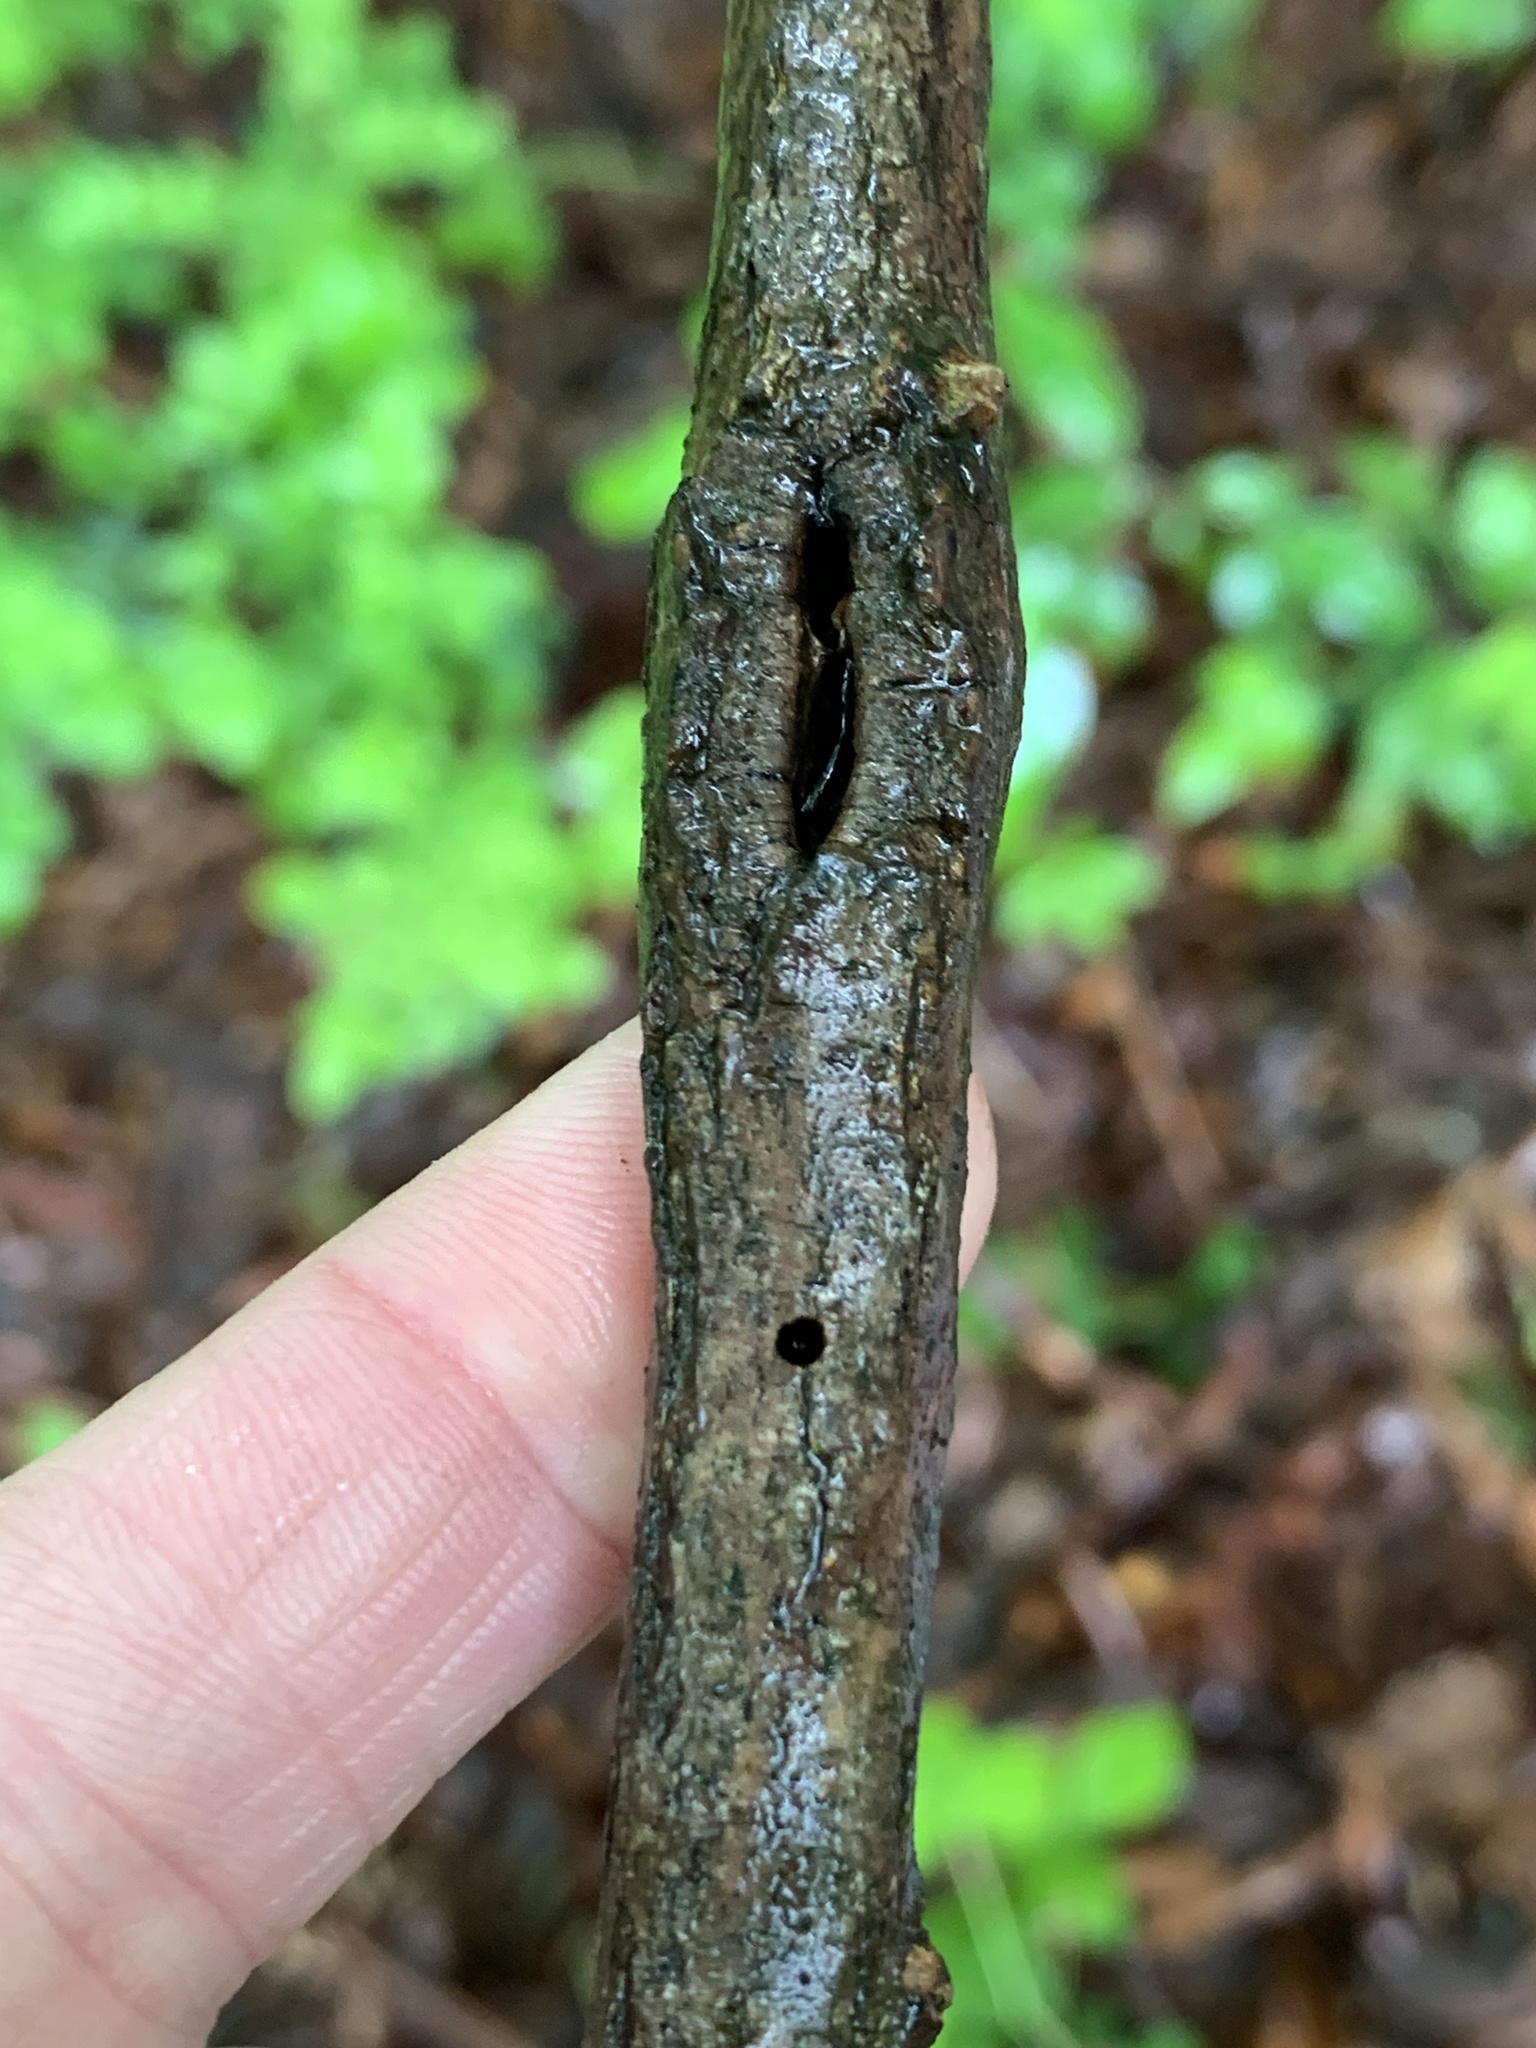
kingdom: Animalia
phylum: Arthropoda
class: Insecta
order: Coleoptera
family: Cerambycidae
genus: Megacyllene
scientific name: Megacyllene robiniae
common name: Locust borer
